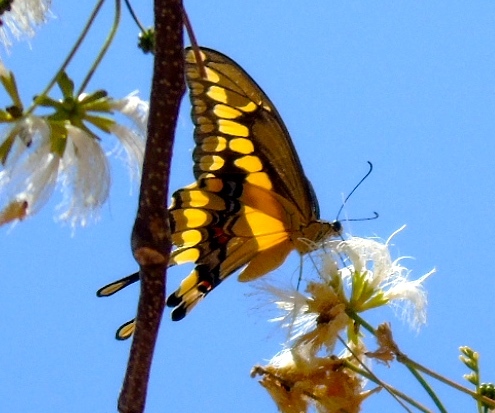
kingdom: Animalia
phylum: Arthropoda
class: Insecta
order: Lepidoptera
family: Papilionidae
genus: Papilio
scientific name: Papilio rumiko
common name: Western giant swallowtail
